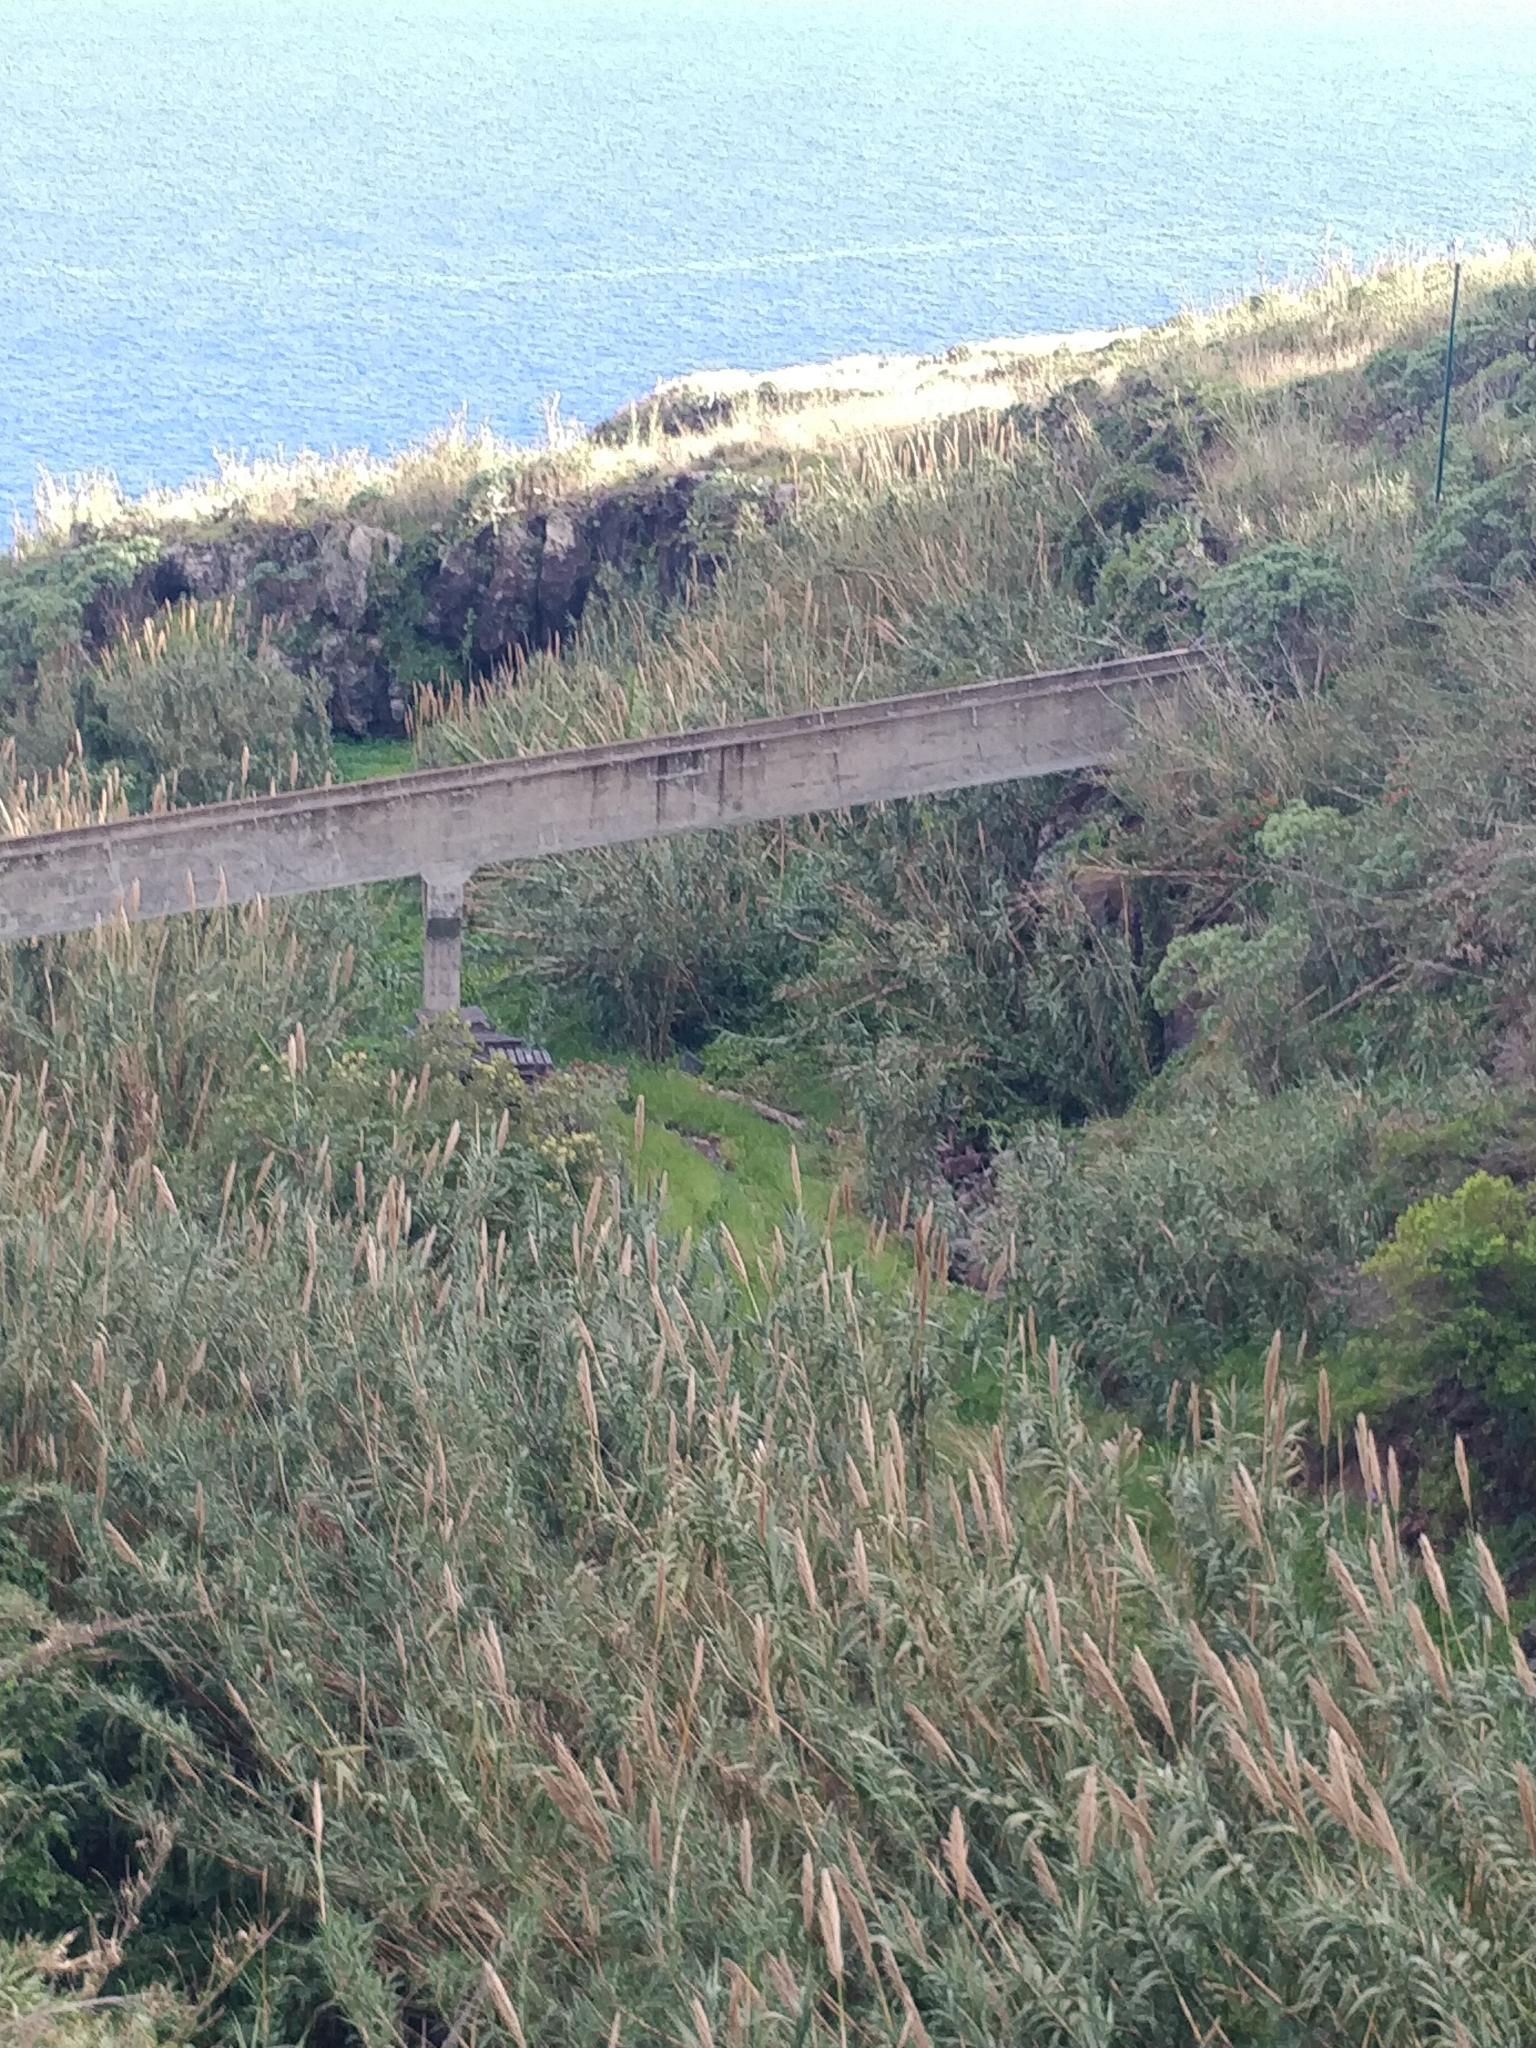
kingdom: Plantae
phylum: Tracheophyta
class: Liliopsida
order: Poales
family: Poaceae
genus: Arundo
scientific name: Arundo donax
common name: Giant reed
